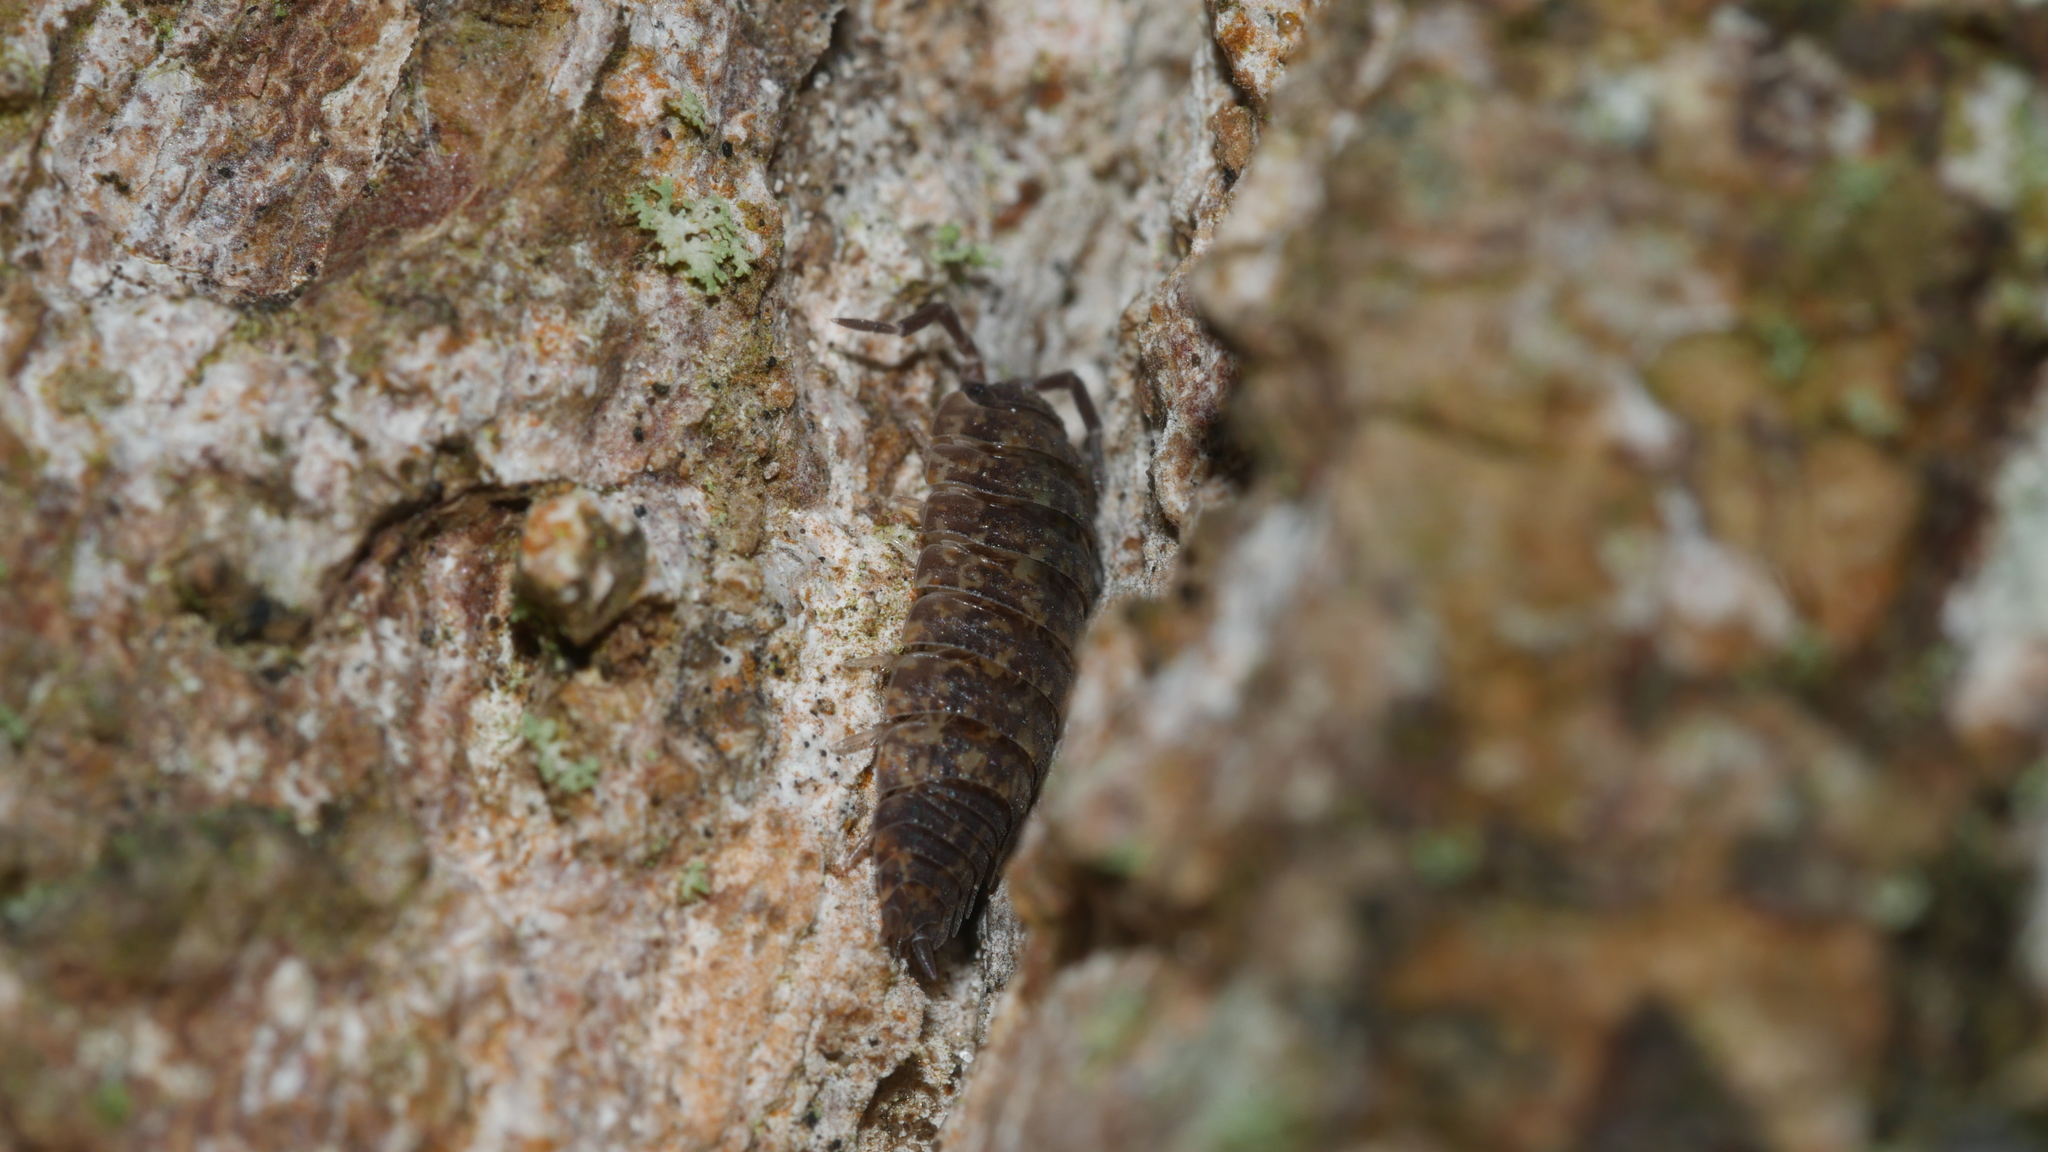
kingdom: Animalia
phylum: Arthropoda
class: Malacostraca
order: Isopoda
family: Porcellionidae
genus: Porcellio
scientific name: Porcellio scaber
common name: Common rough woodlouse
